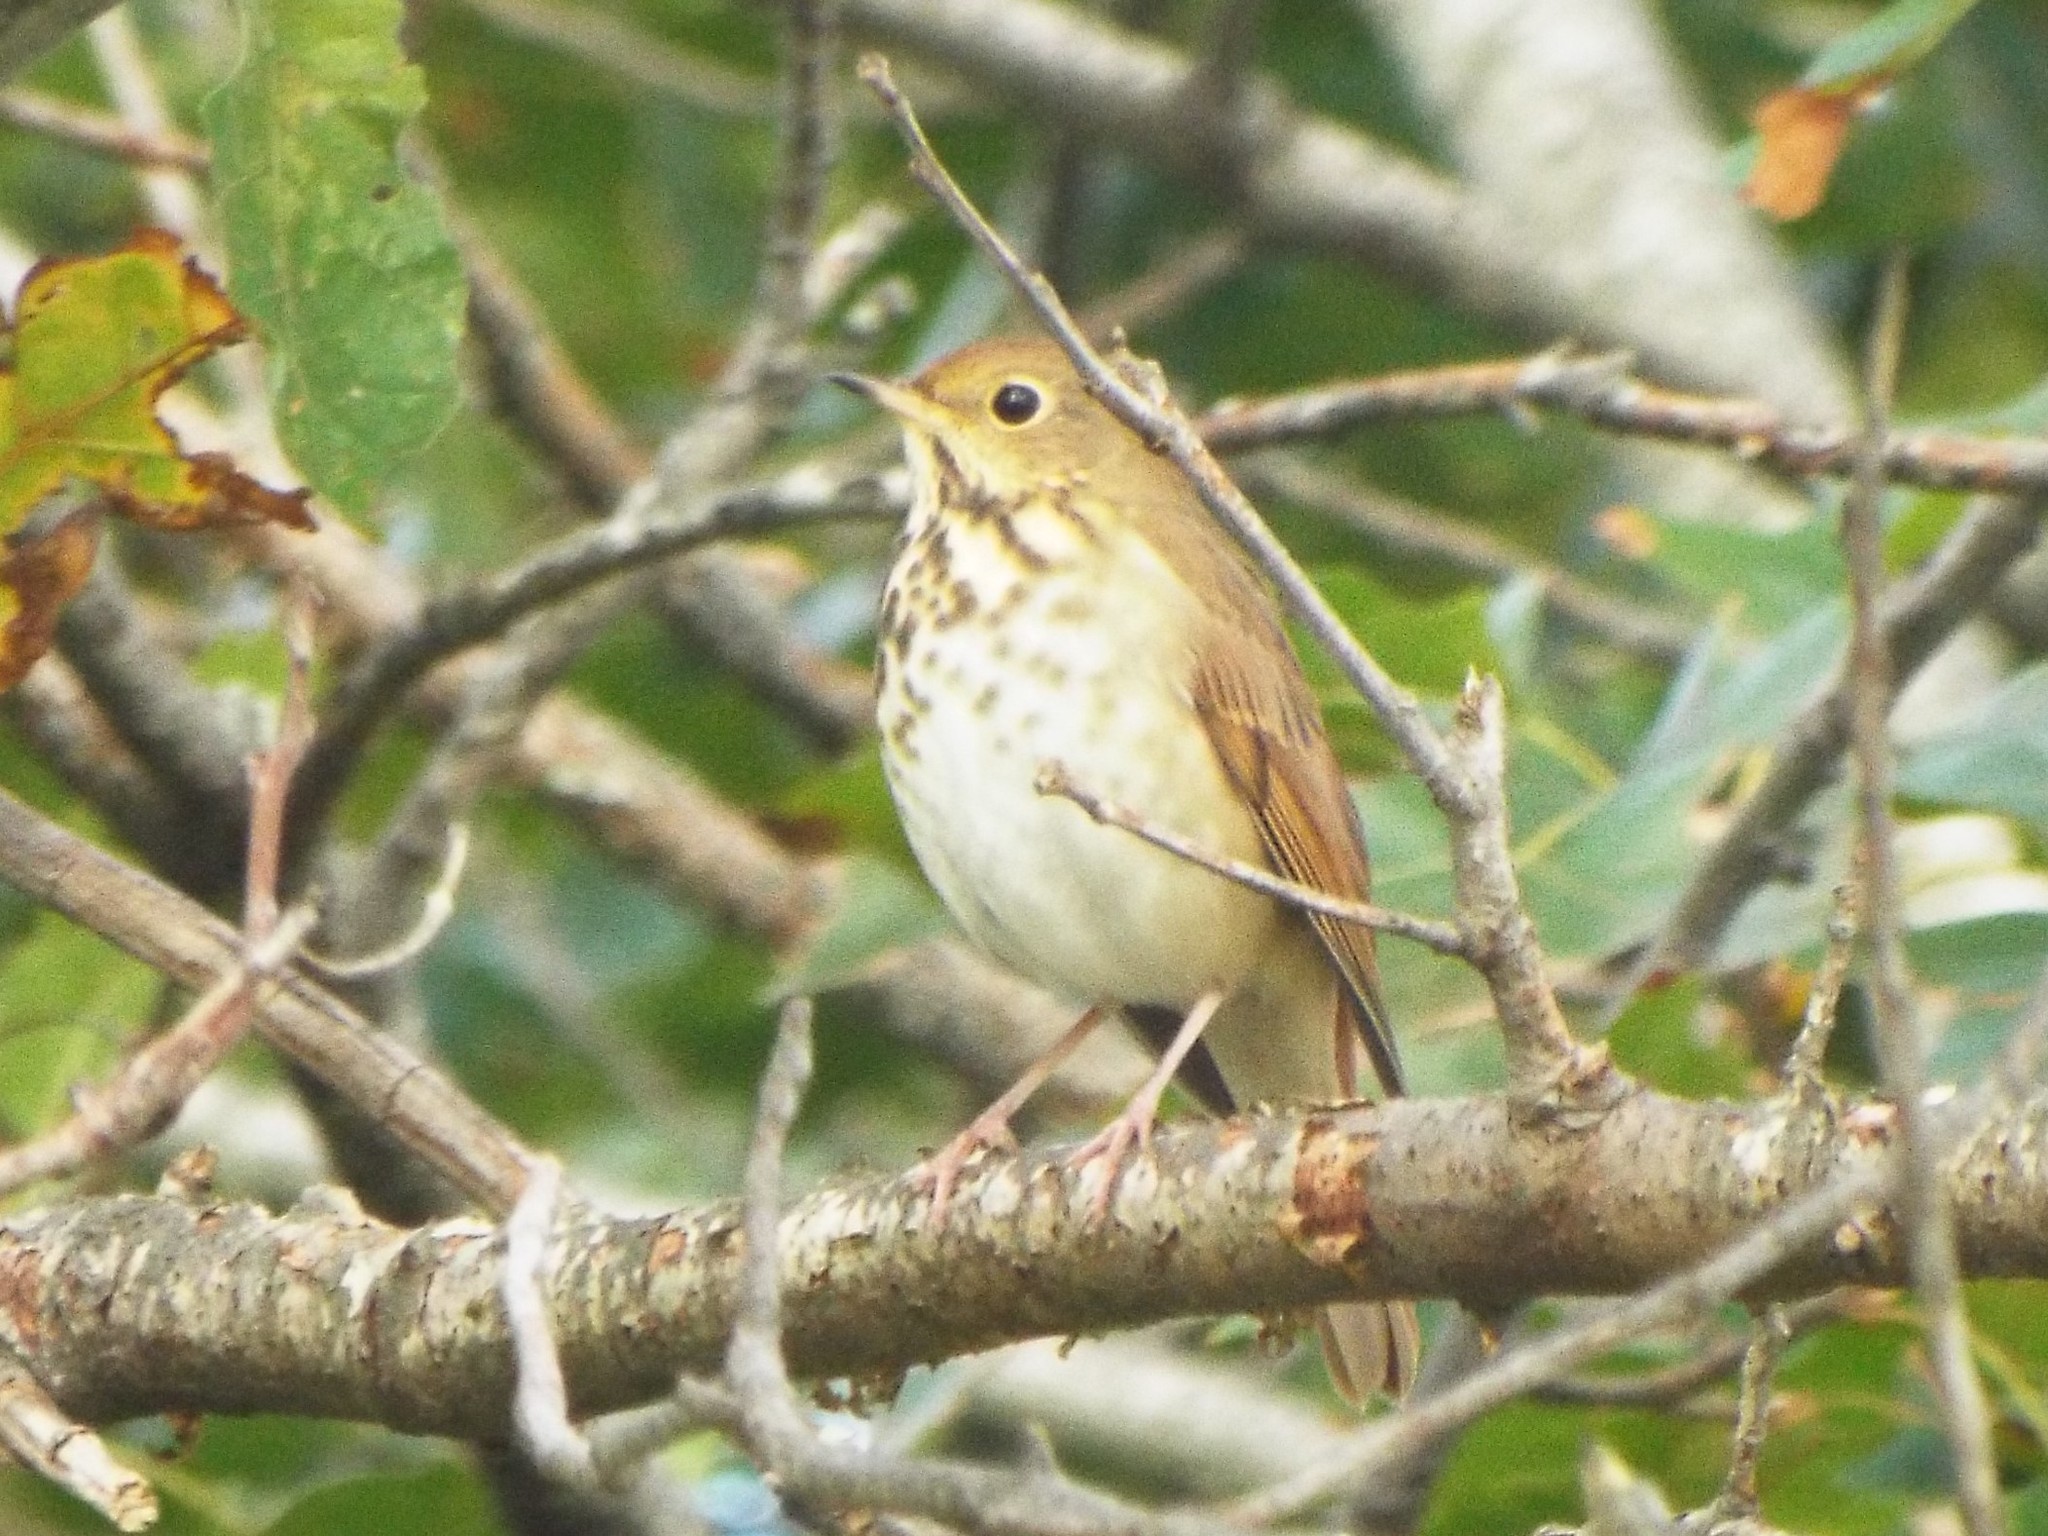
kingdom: Animalia
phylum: Chordata
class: Aves
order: Passeriformes
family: Turdidae
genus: Catharus
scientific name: Catharus guttatus
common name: Hermit thrush
